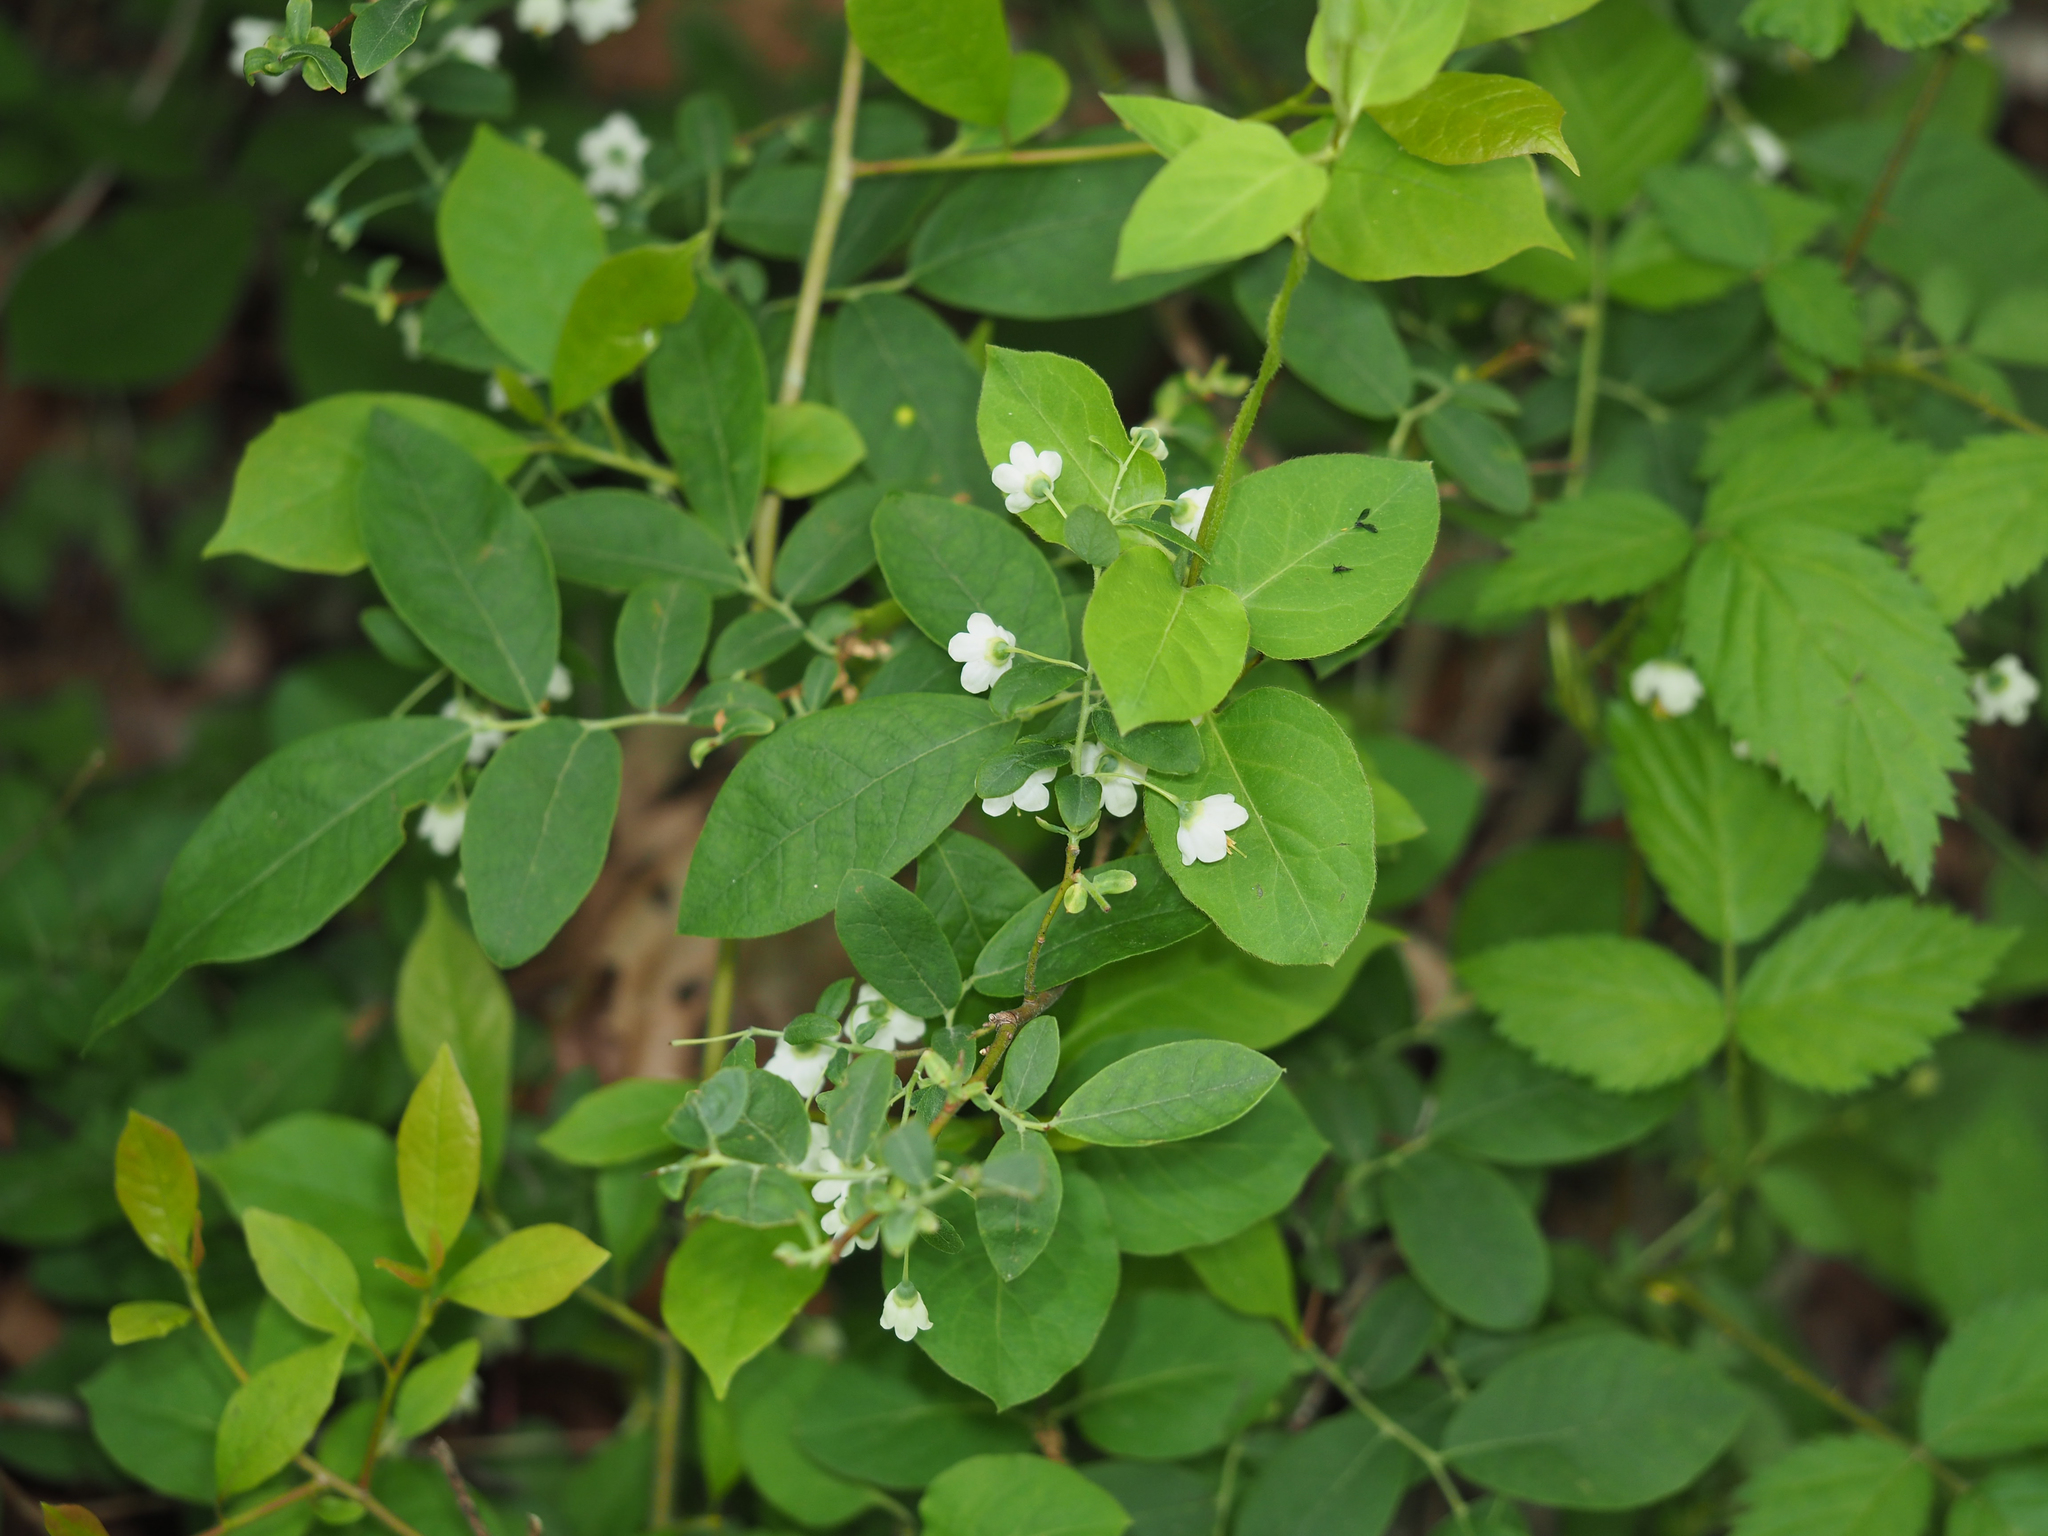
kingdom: Plantae
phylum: Tracheophyta
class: Magnoliopsida
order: Ericales
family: Ericaceae
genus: Vaccinium
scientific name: Vaccinium stamineum
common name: Deerberry
